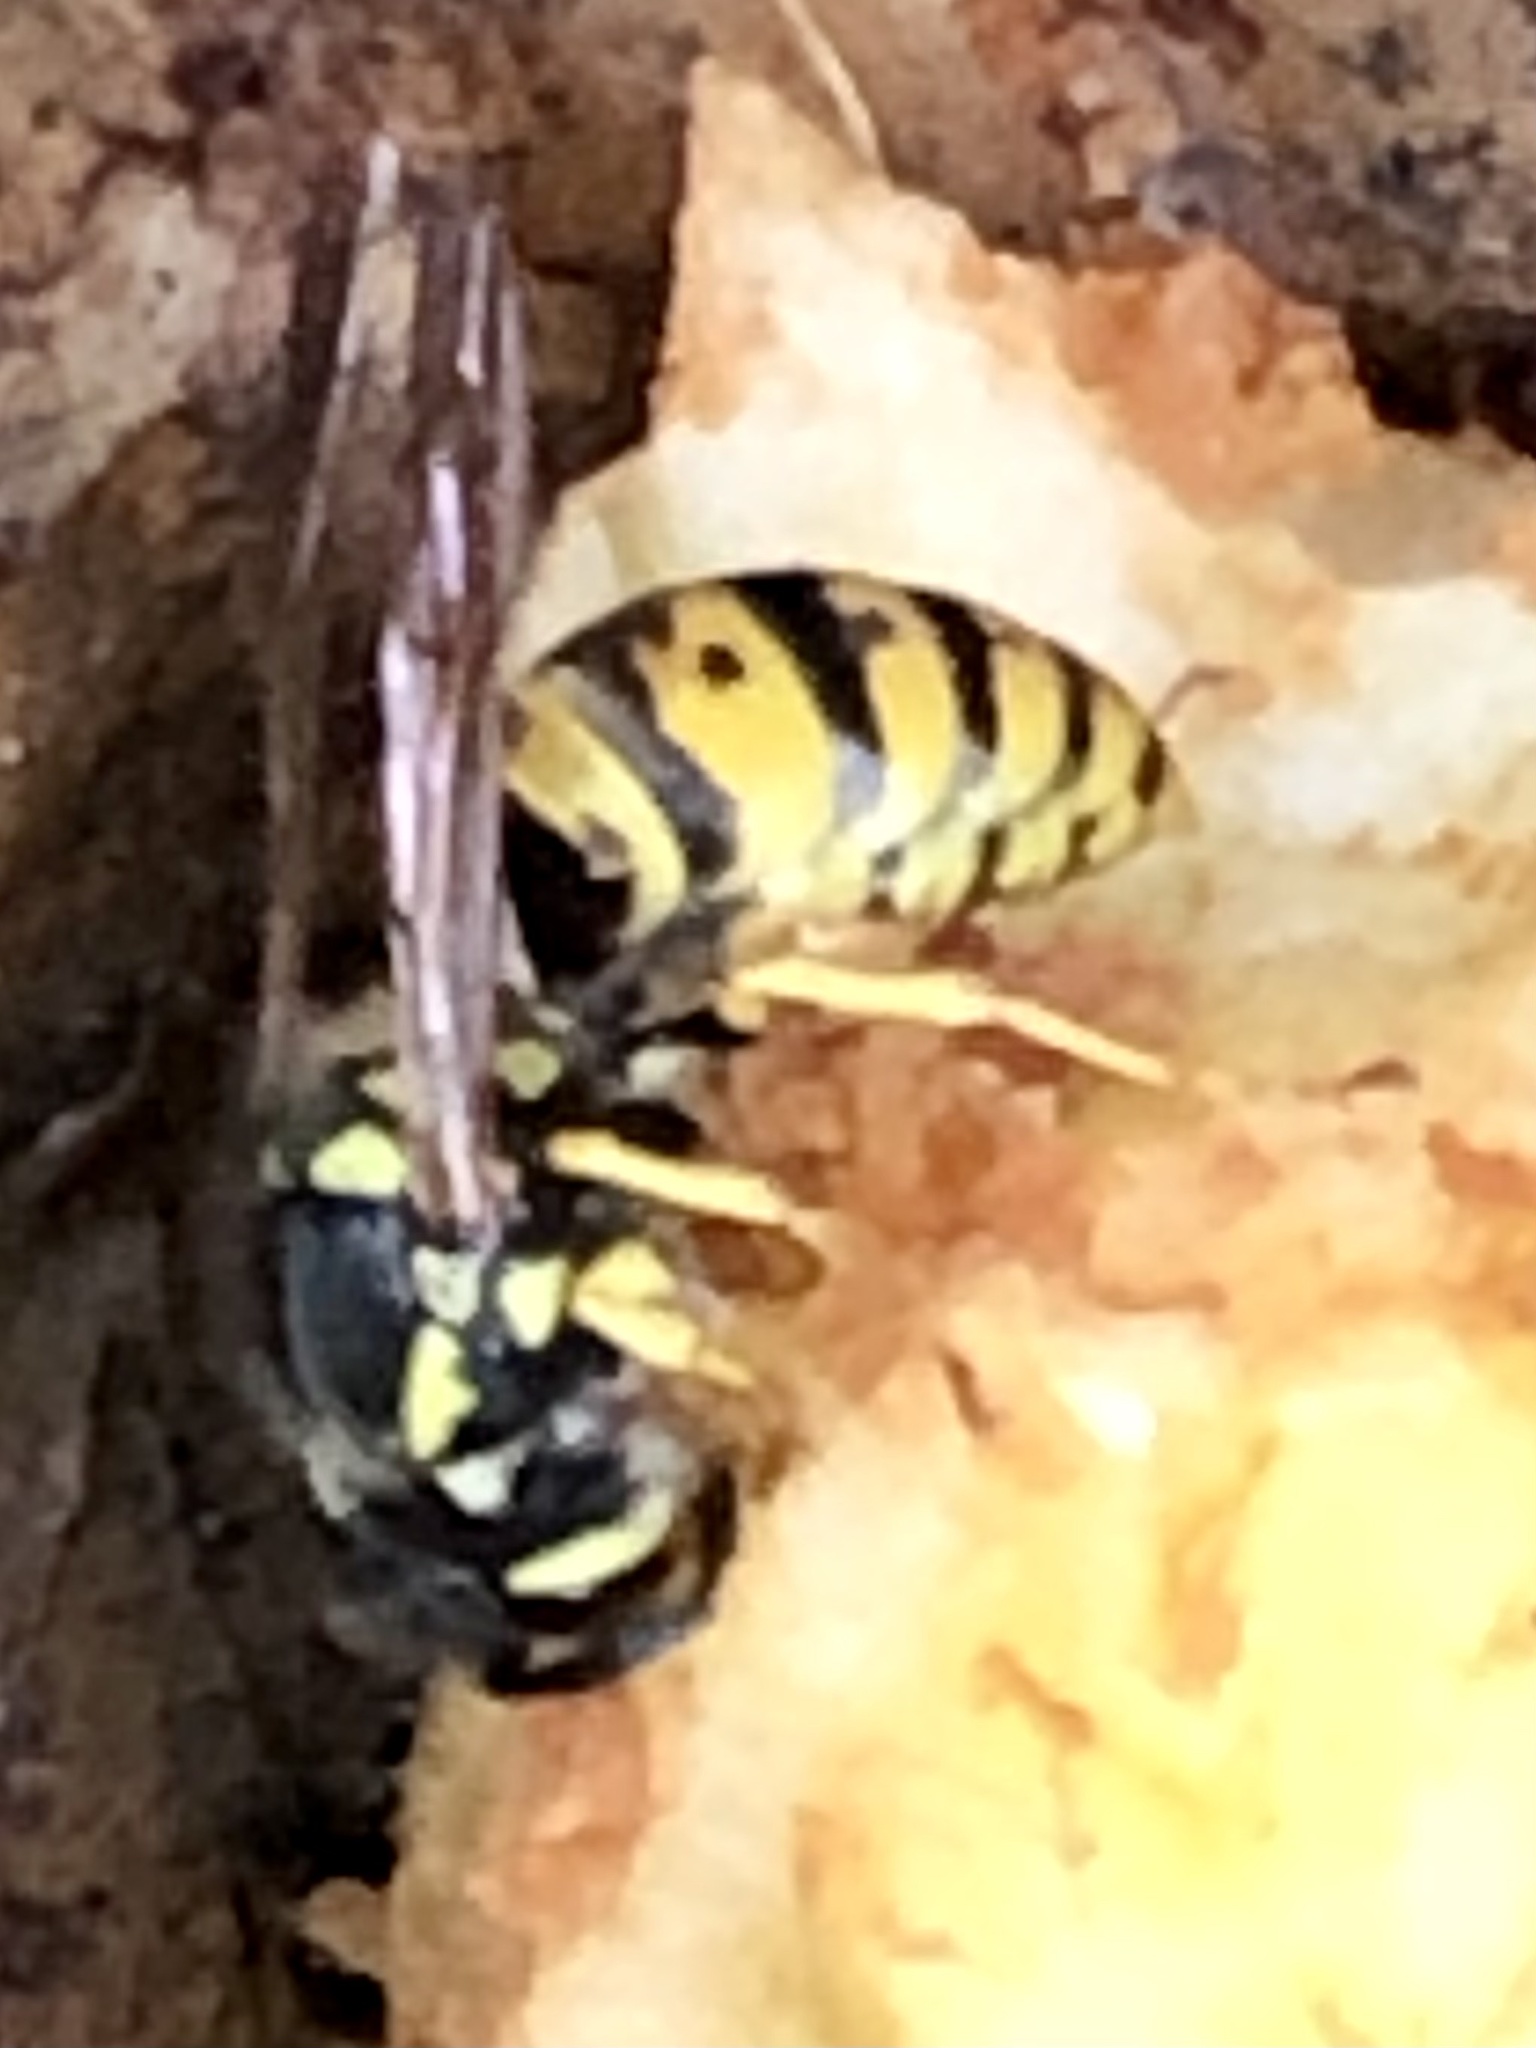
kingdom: Animalia
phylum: Arthropoda
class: Insecta
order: Hymenoptera
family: Vespidae
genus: Vespula
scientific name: Vespula germanica
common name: German wasp
